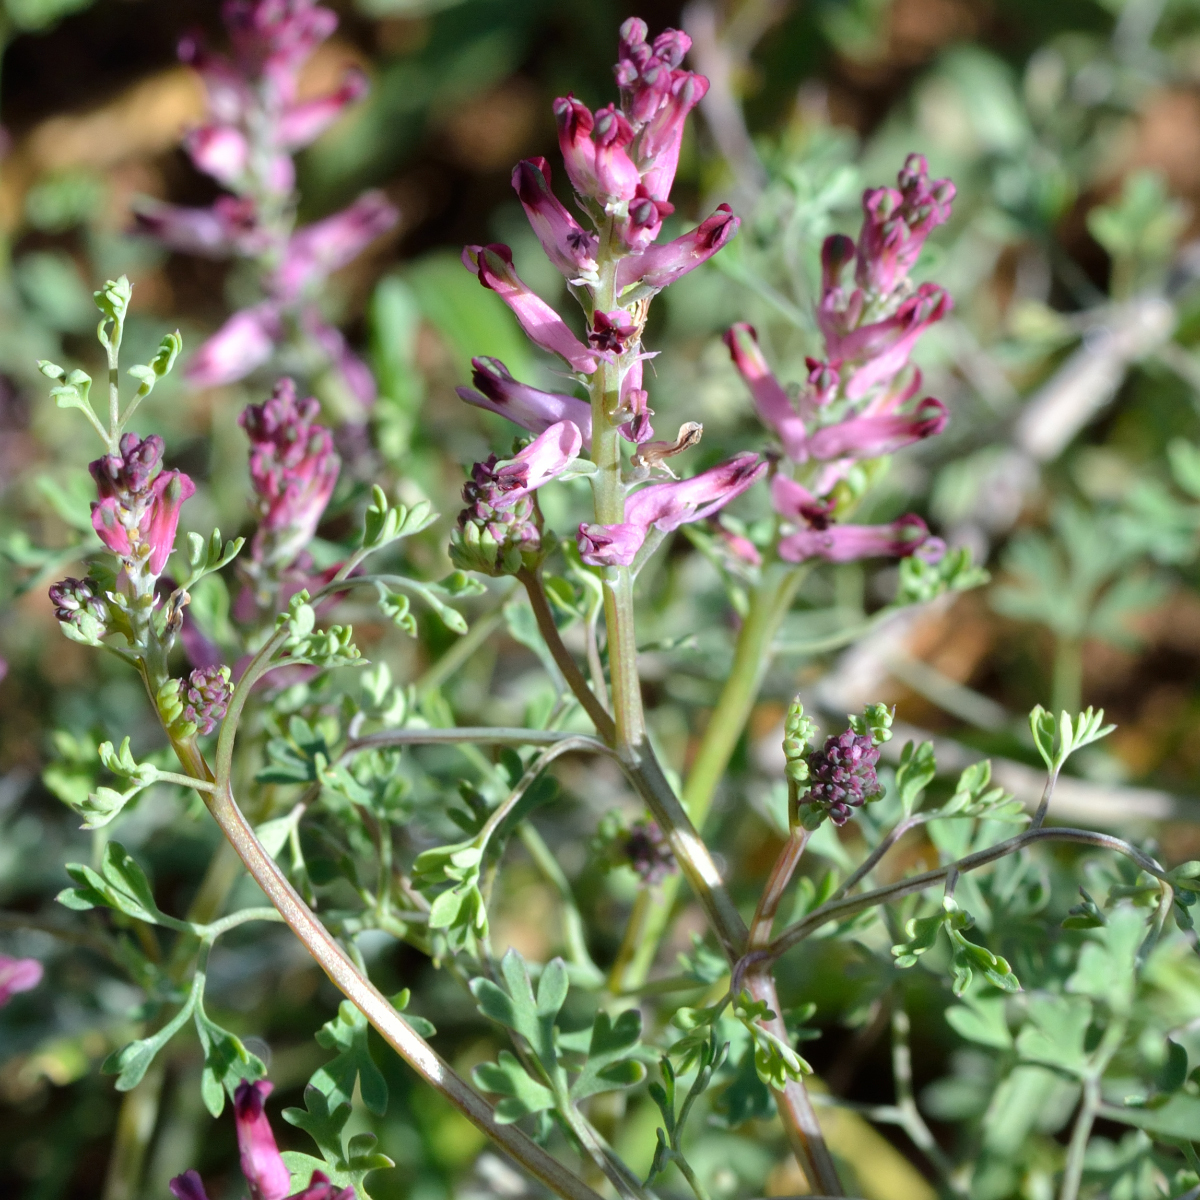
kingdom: Plantae
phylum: Tracheophyta
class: Magnoliopsida
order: Ranunculales
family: Papaveraceae
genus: Fumaria
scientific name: Fumaria officinalis
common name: Common fumitory
